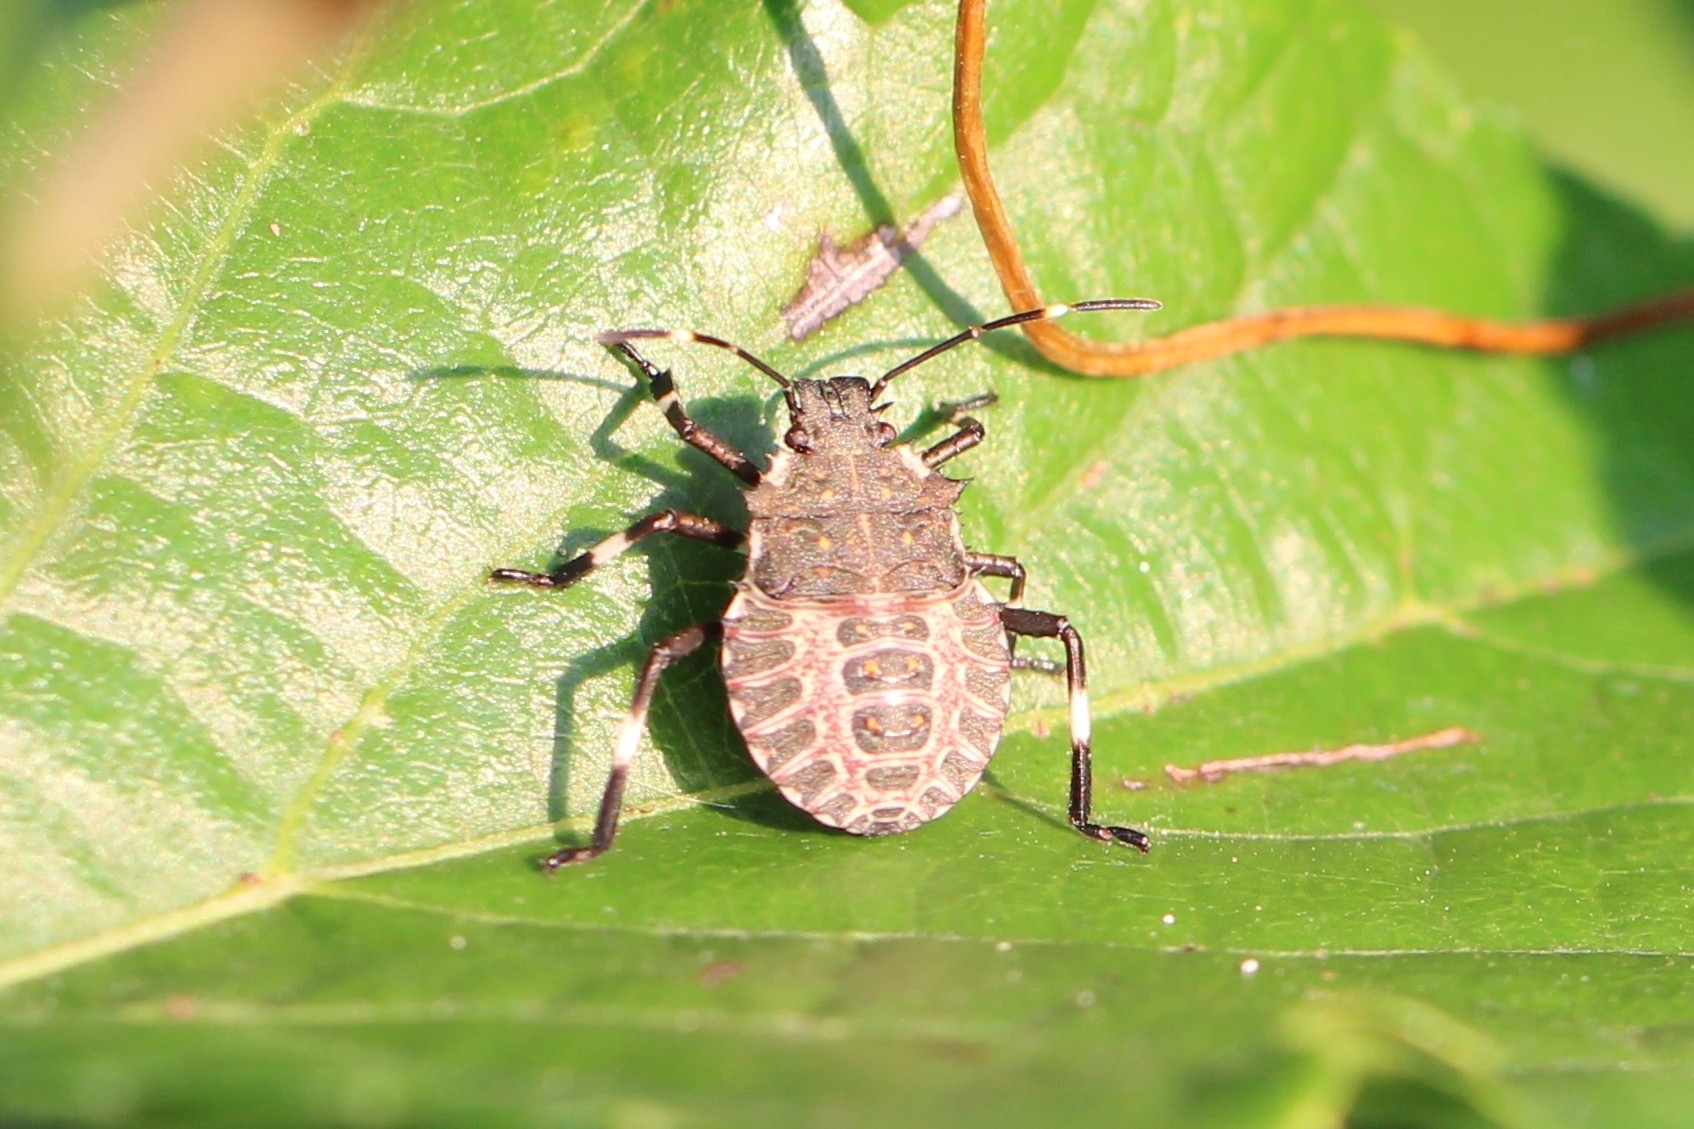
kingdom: Animalia
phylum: Arthropoda
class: Insecta
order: Hemiptera
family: Pentatomidae
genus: Halyomorpha
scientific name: Halyomorpha halys
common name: Brown marmorated stink bug
